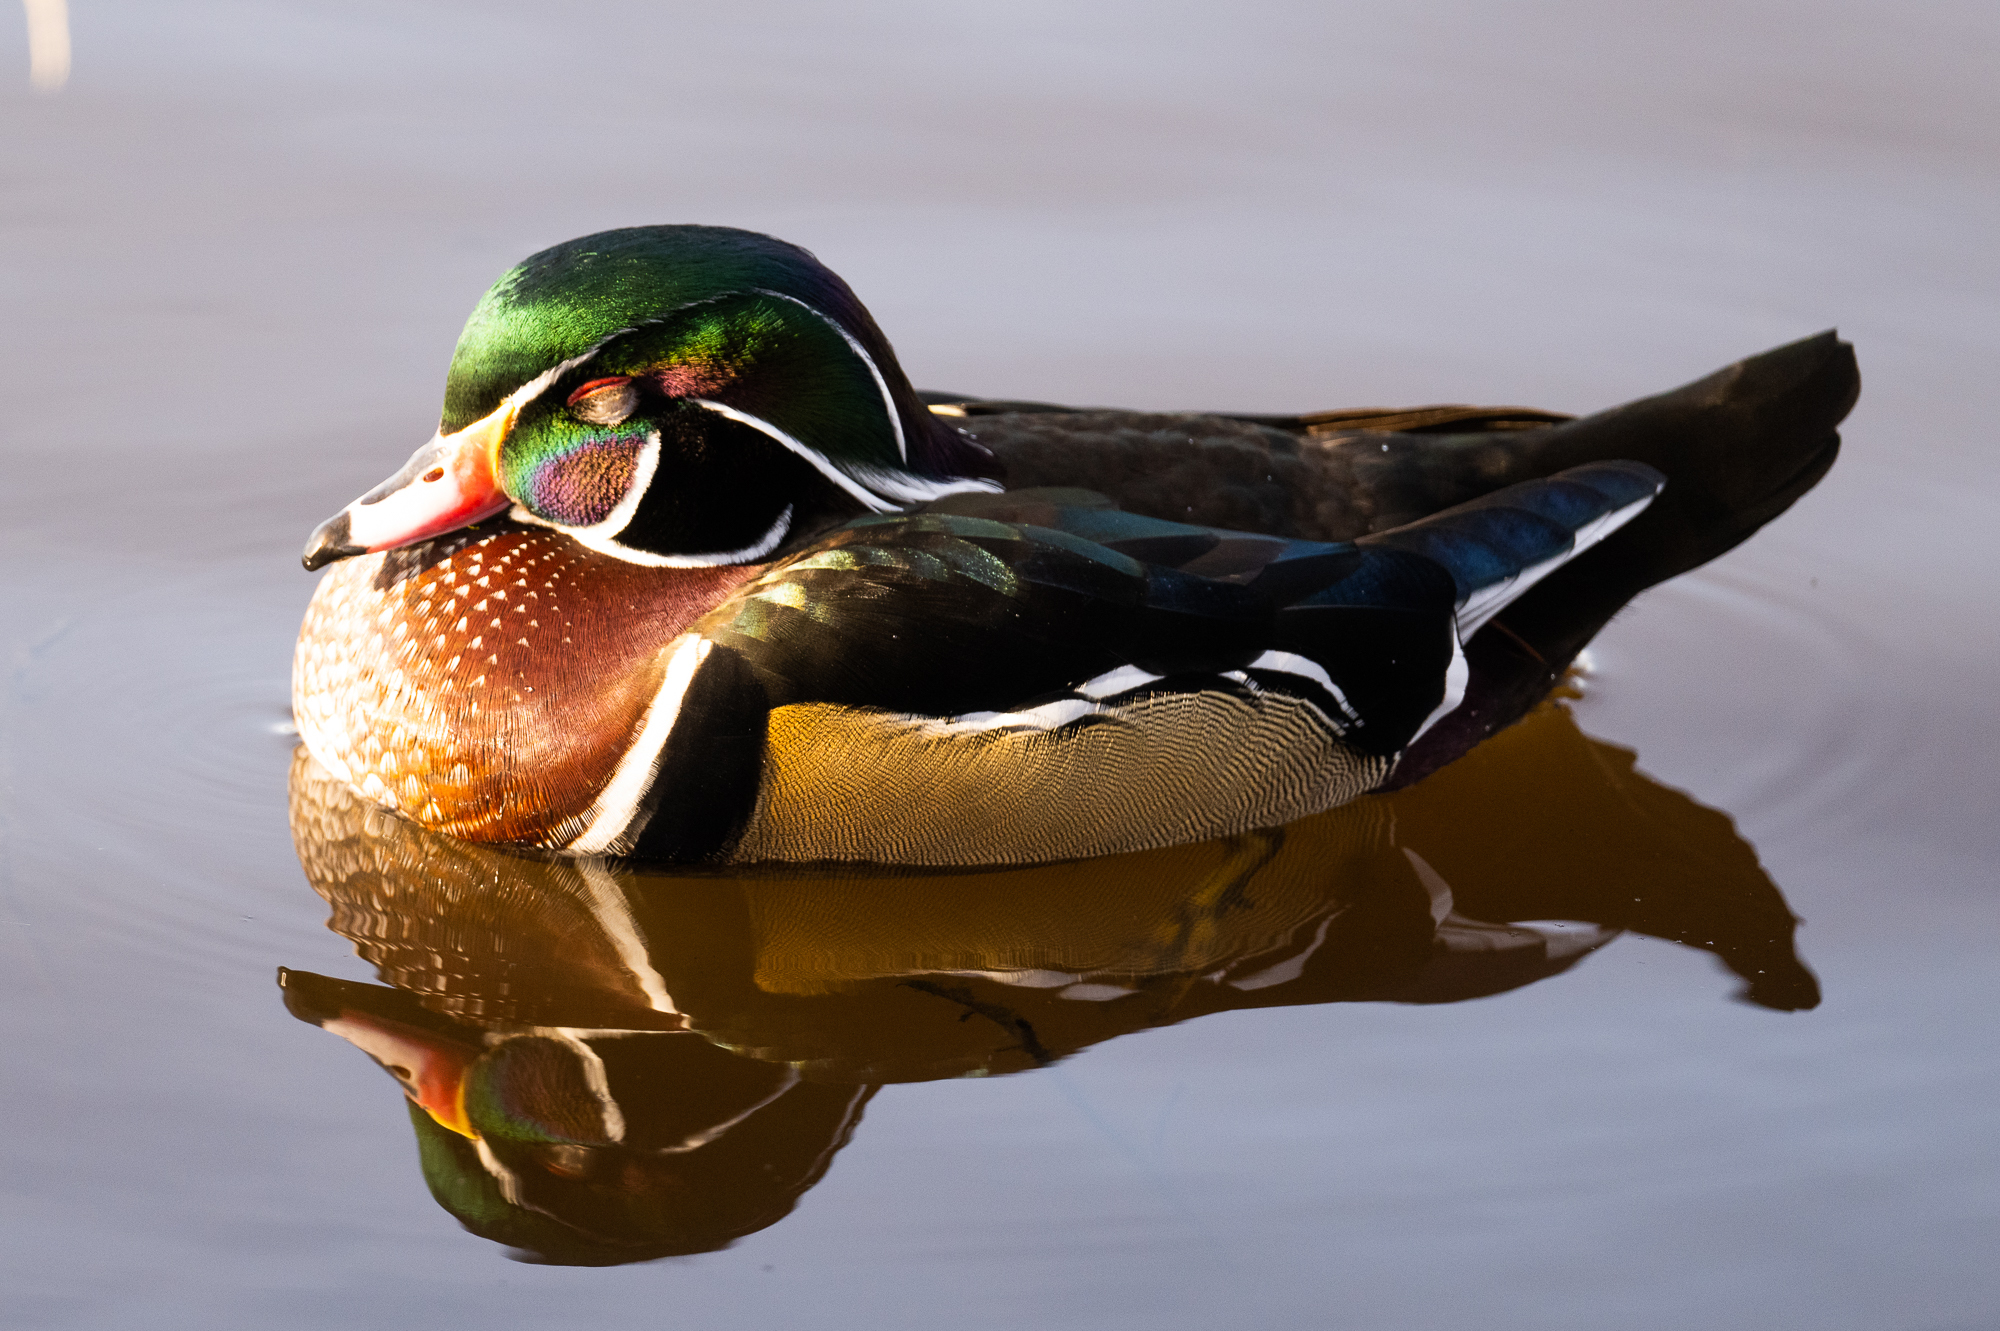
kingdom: Animalia
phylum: Chordata
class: Aves
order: Anseriformes
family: Anatidae
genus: Aix
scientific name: Aix sponsa
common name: Wood duck
